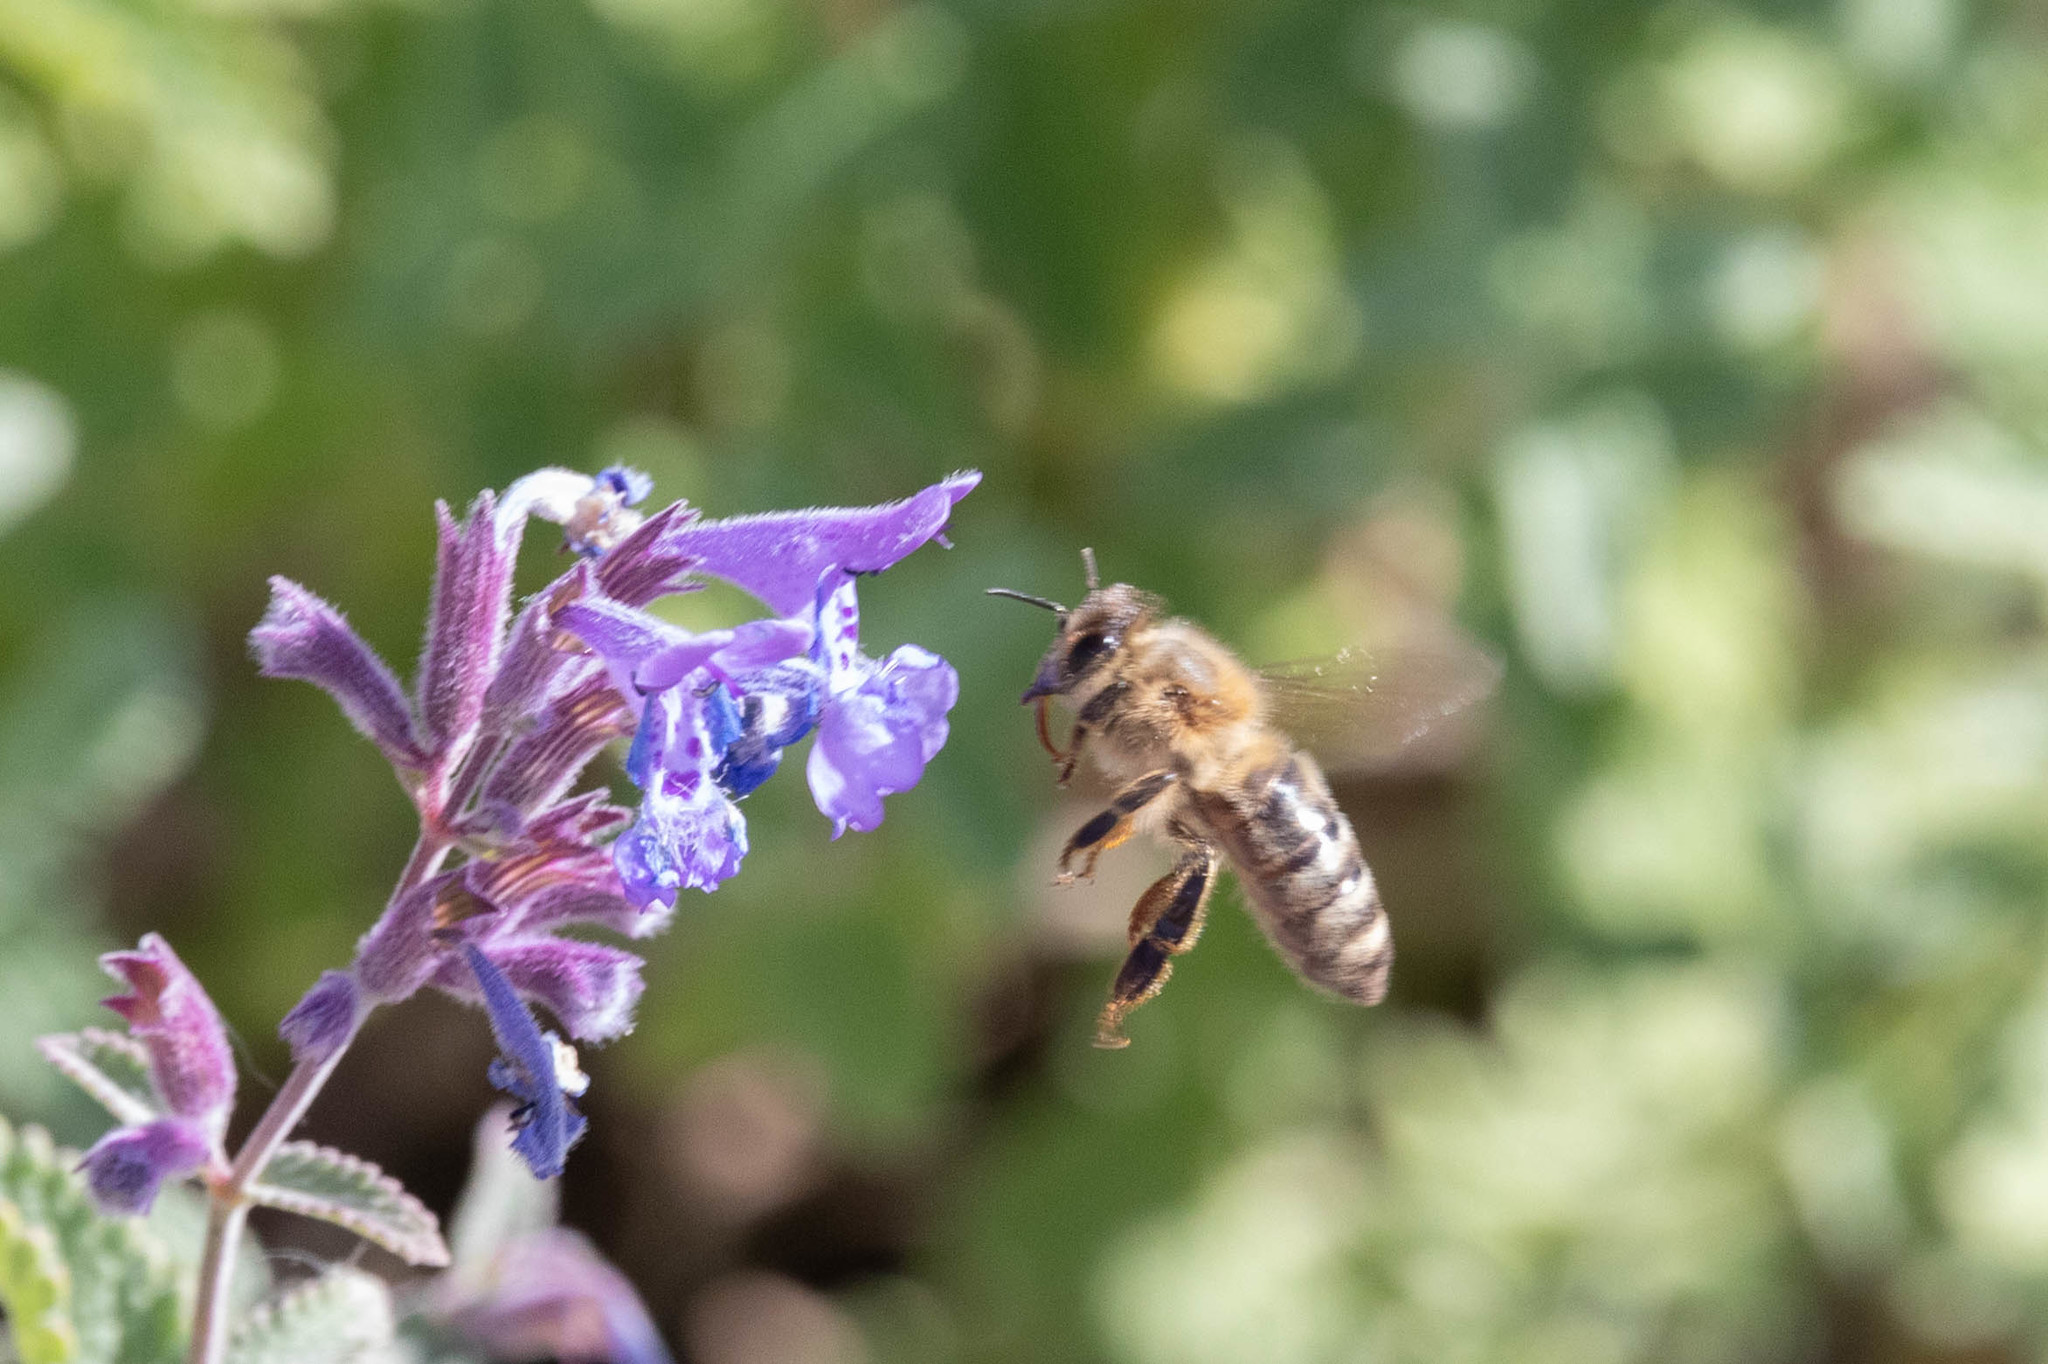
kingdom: Animalia
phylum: Arthropoda
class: Insecta
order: Hymenoptera
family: Apidae
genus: Apis
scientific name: Apis mellifera
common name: Honey bee
